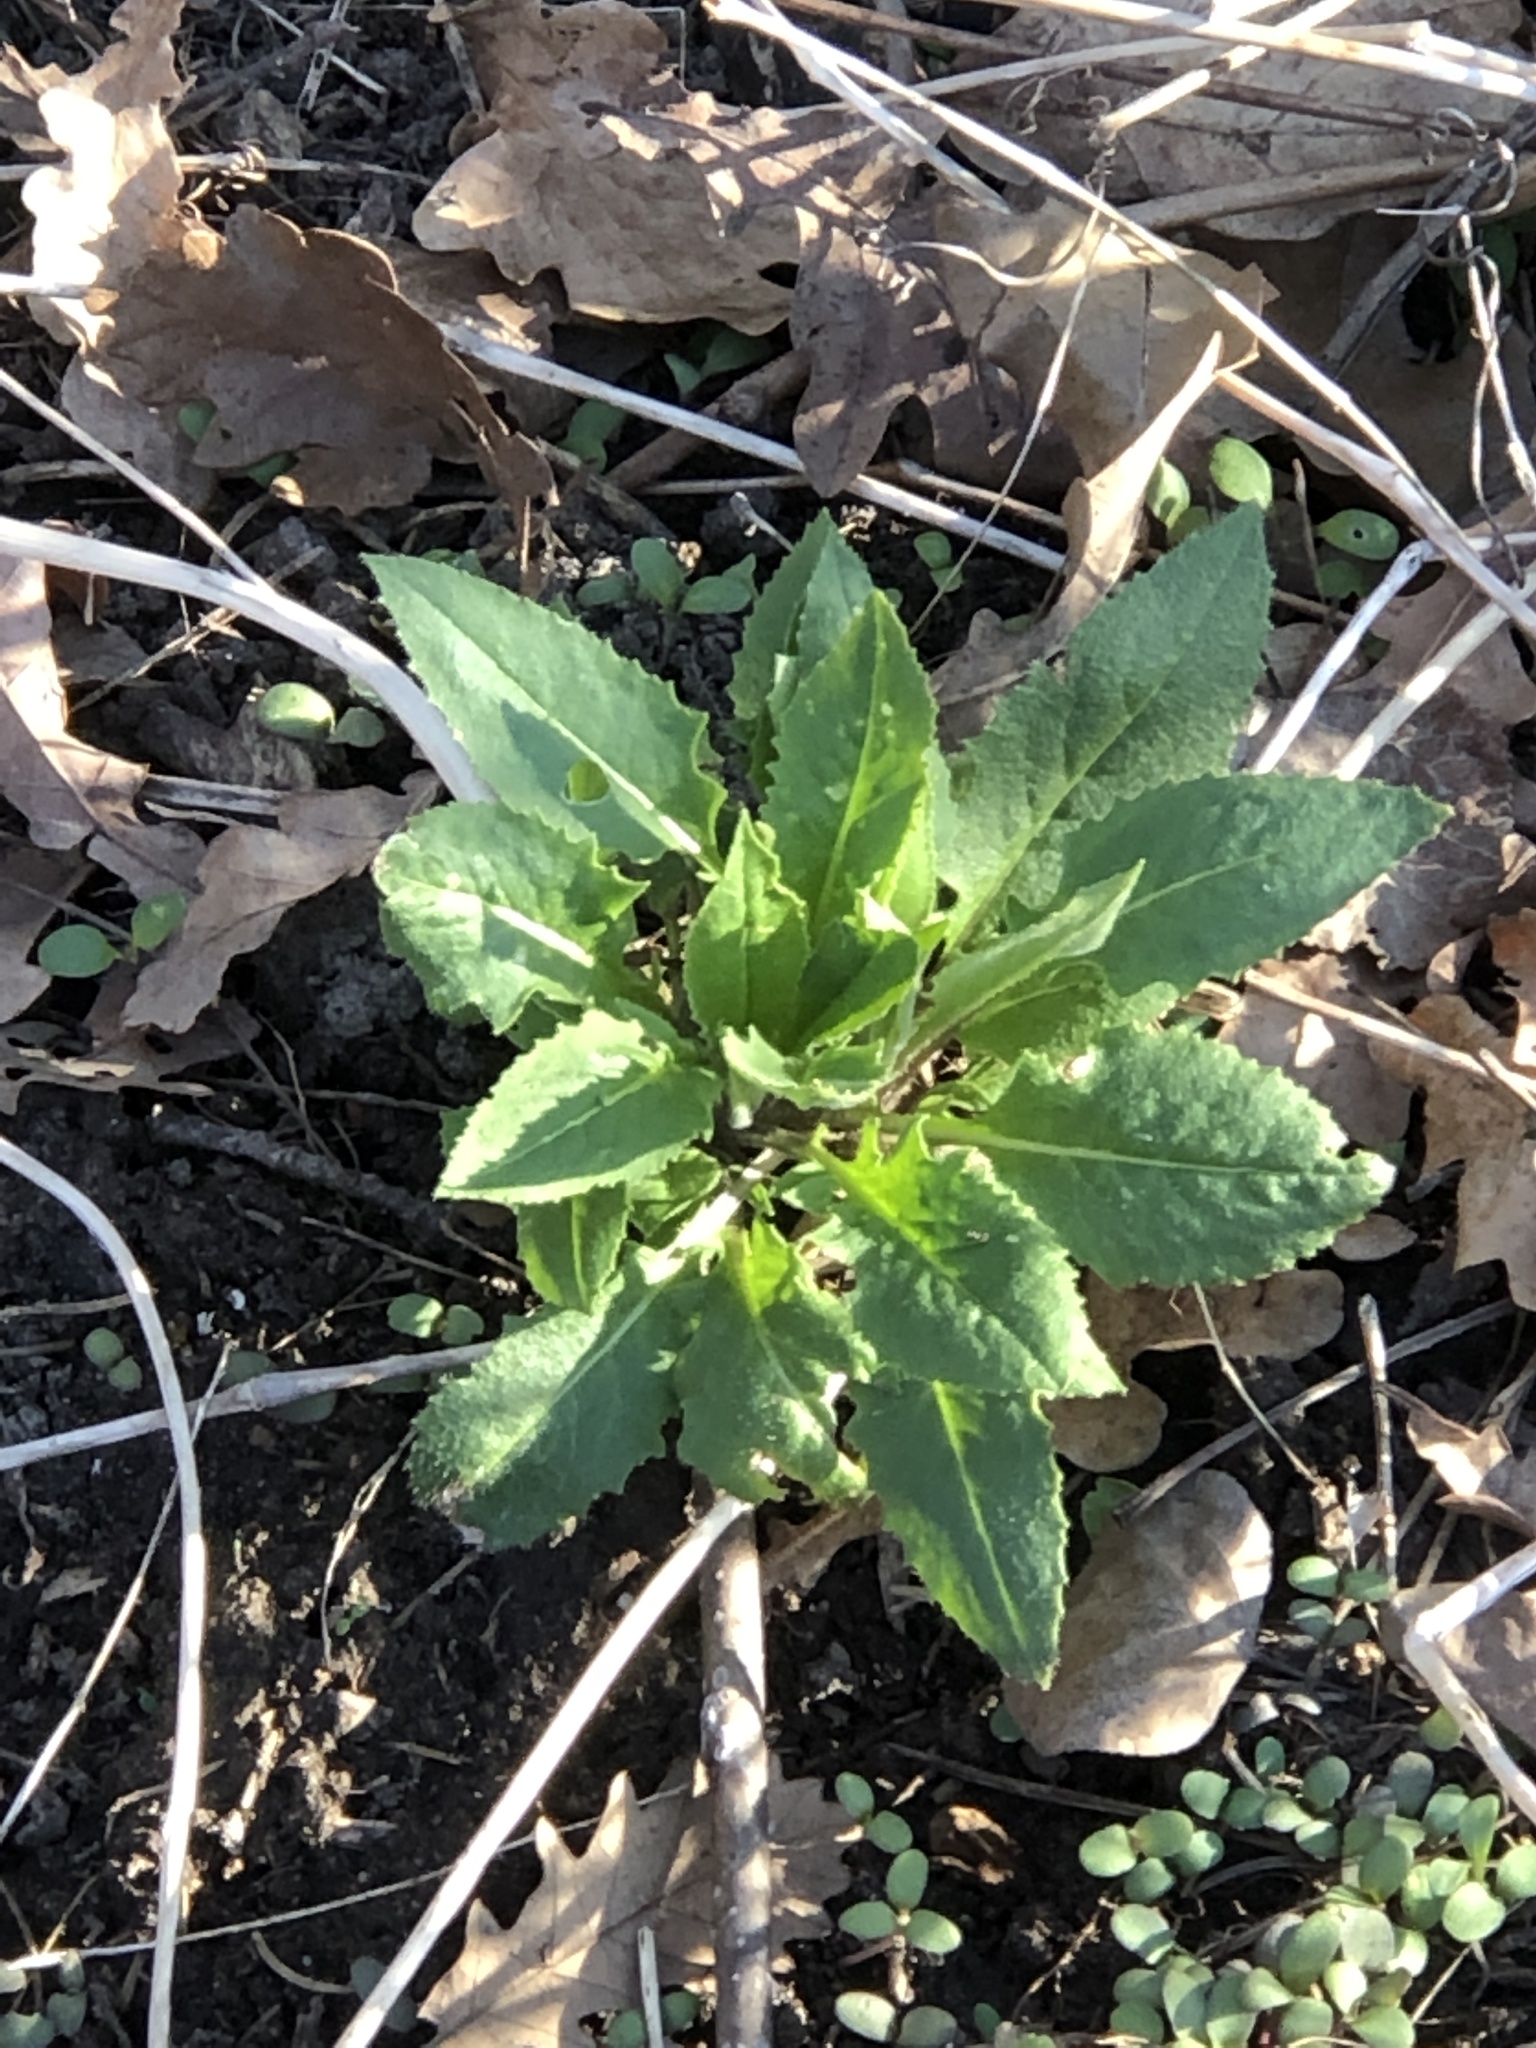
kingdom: Plantae
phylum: Tracheophyta
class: Magnoliopsida
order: Brassicales
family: Brassicaceae
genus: Hesperis
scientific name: Hesperis matronalis
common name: Dame's-violet
